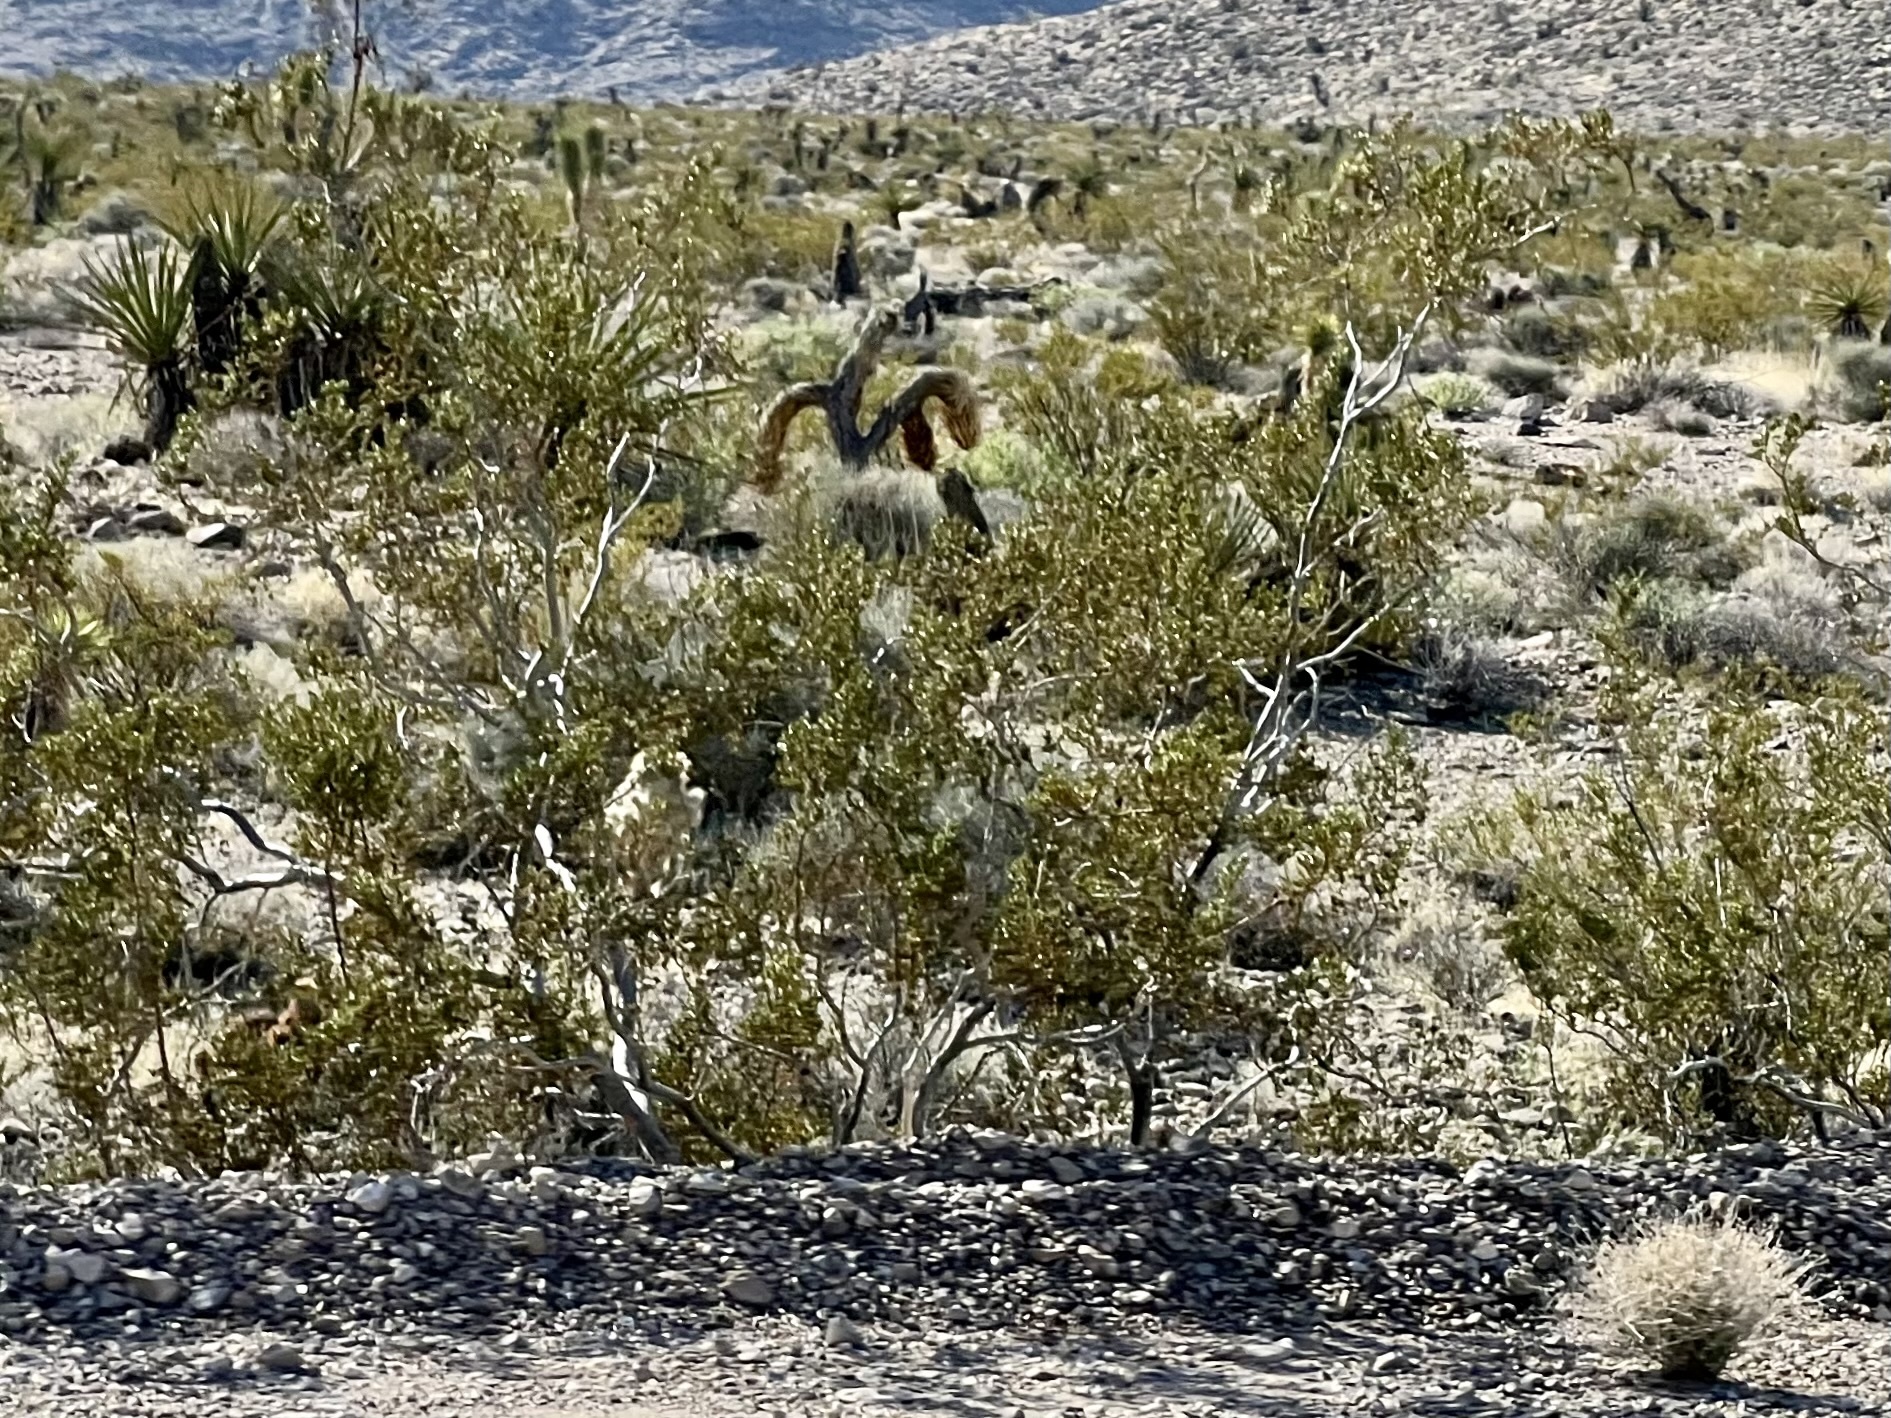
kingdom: Plantae
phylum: Tracheophyta
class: Magnoliopsida
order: Zygophyllales
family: Zygophyllaceae
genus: Larrea
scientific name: Larrea tridentata
